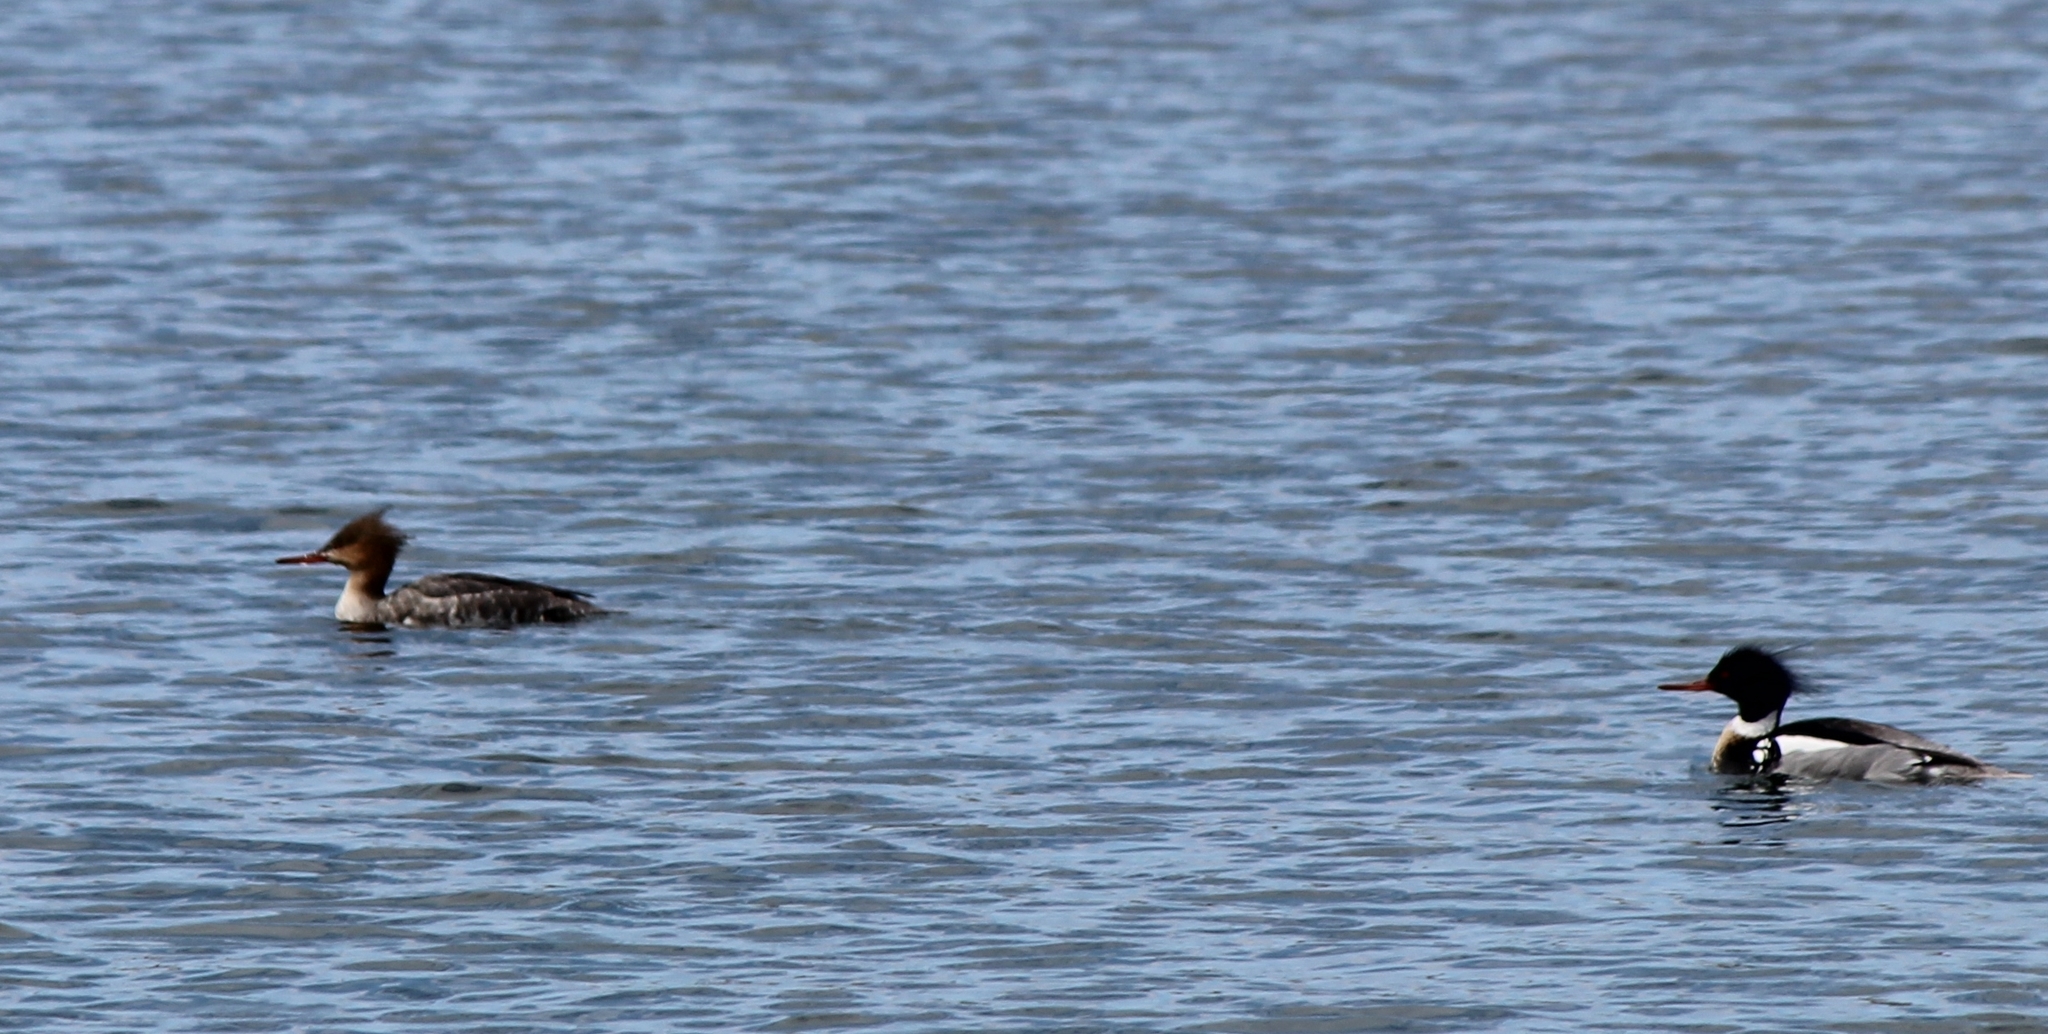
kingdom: Animalia
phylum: Chordata
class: Aves
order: Anseriformes
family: Anatidae
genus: Mergus
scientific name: Mergus serrator
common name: Red-breasted merganser
